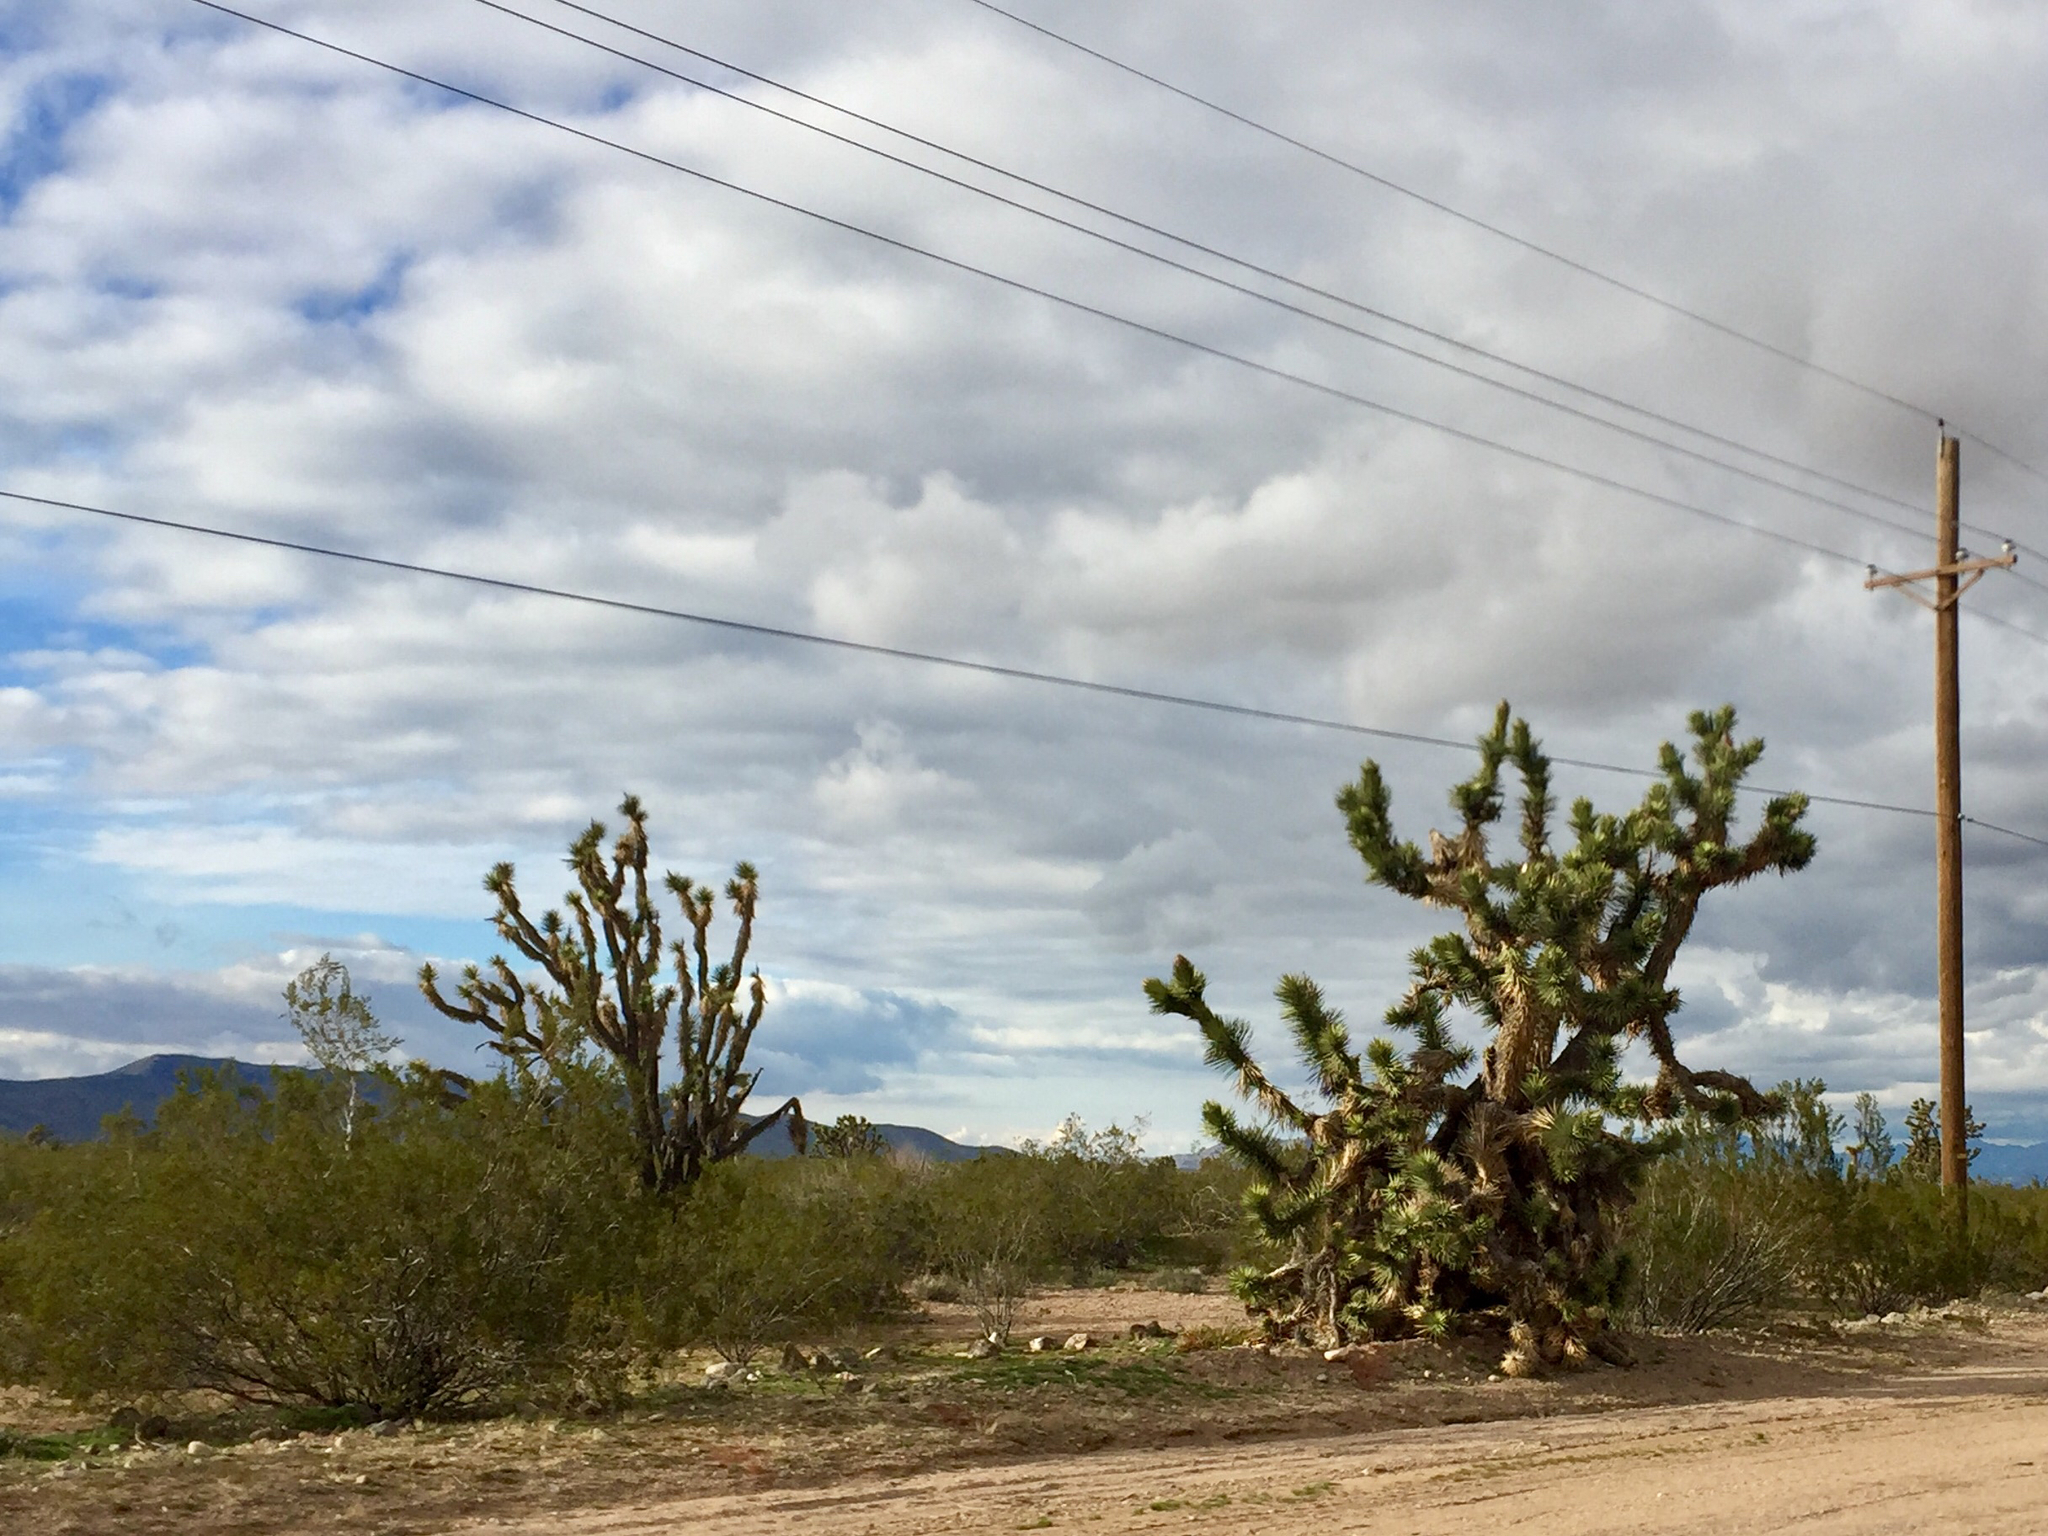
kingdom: Plantae
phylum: Tracheophyta
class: Liliopsida
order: Asparagales
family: Asparagaceae
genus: Yucca
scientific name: Yucca brevifolia
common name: Joshua tree
